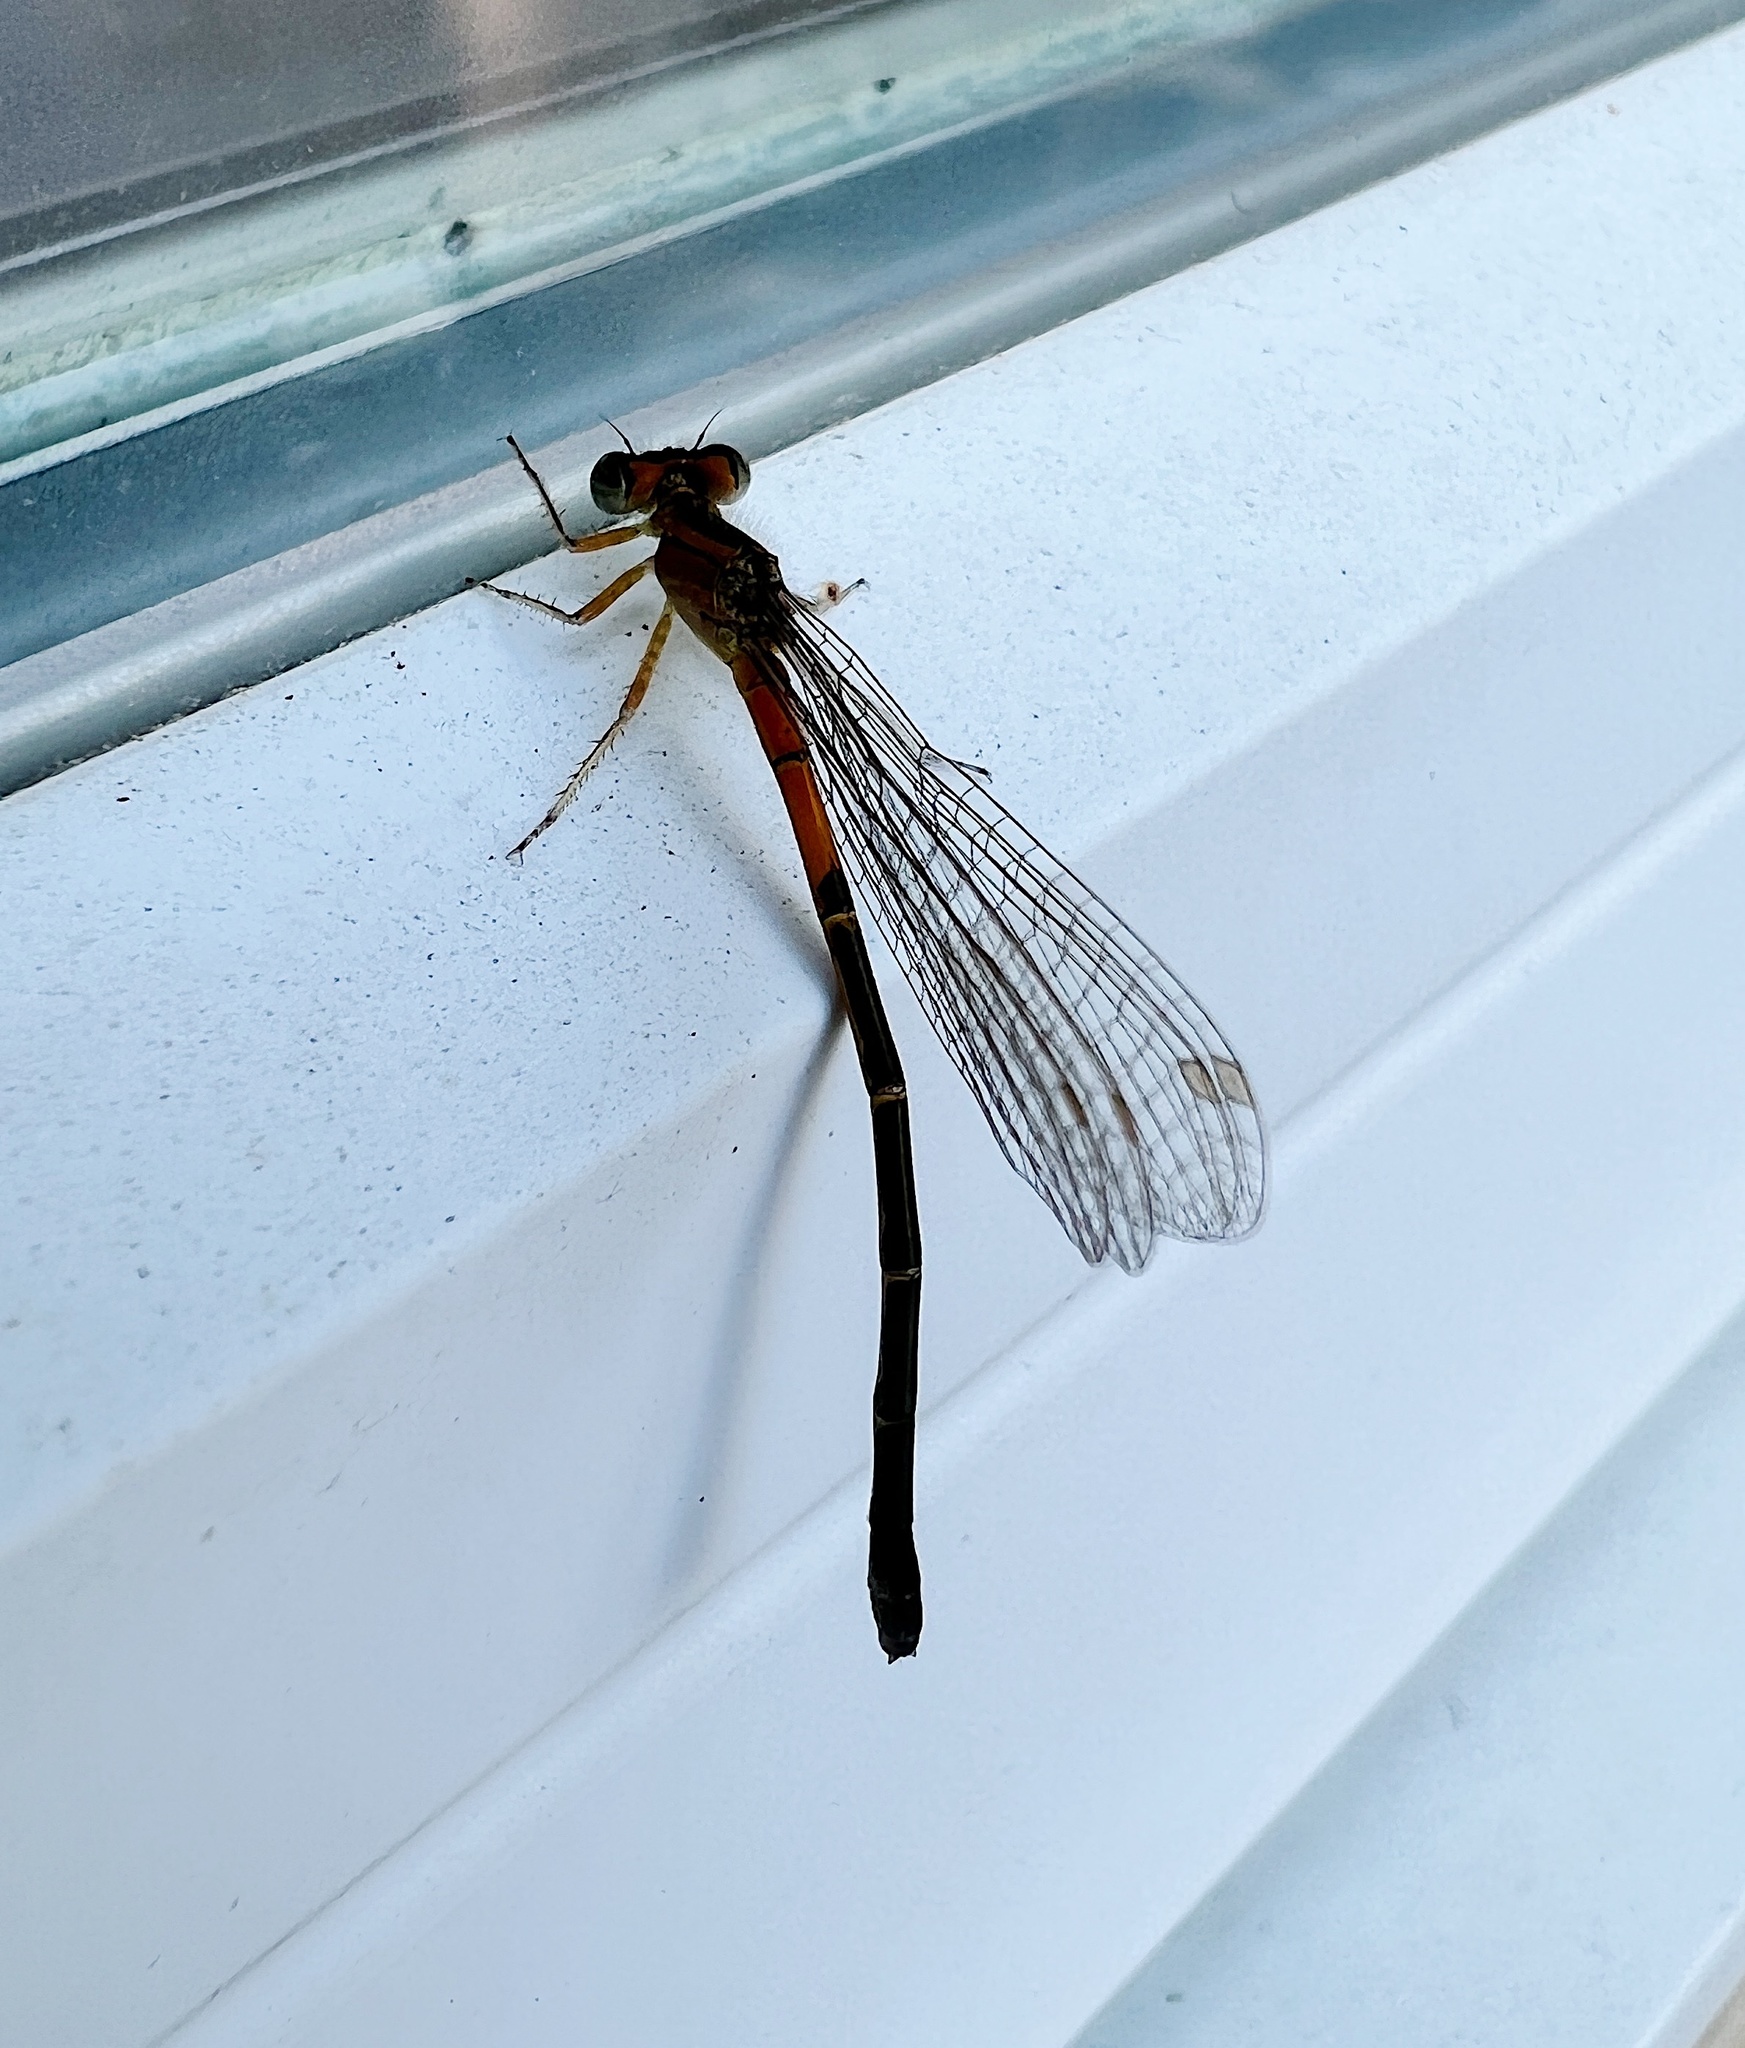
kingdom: Animalia
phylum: Arthropoda
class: Insecta
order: Odonata
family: Coenagrionidae
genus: Ischnura
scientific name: Ischnura verticalis
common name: Eastern forktail
